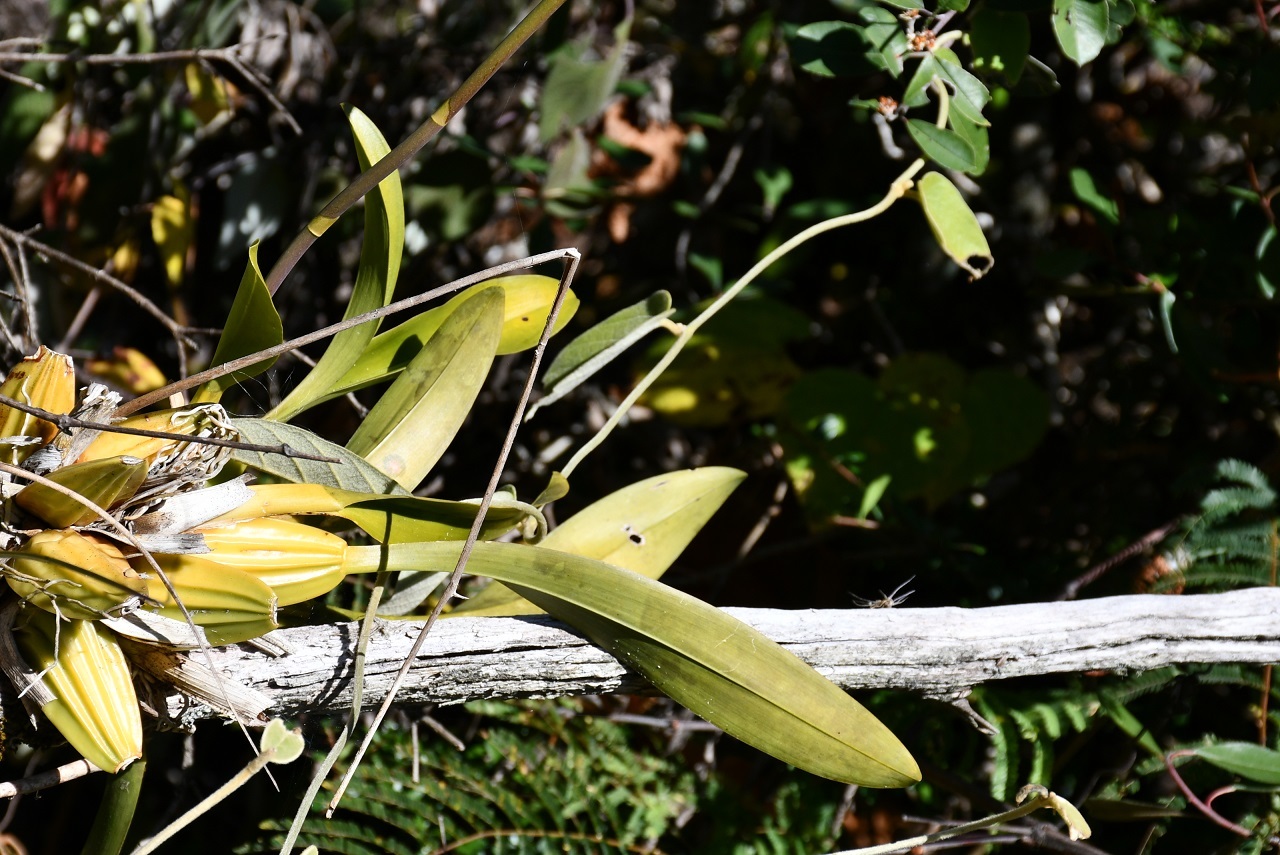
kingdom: Plantae
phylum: Tracheophyta
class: Liliopsida
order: Asparagales
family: Orchidaceae
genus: Oncidium
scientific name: Oncidium leucochilum
